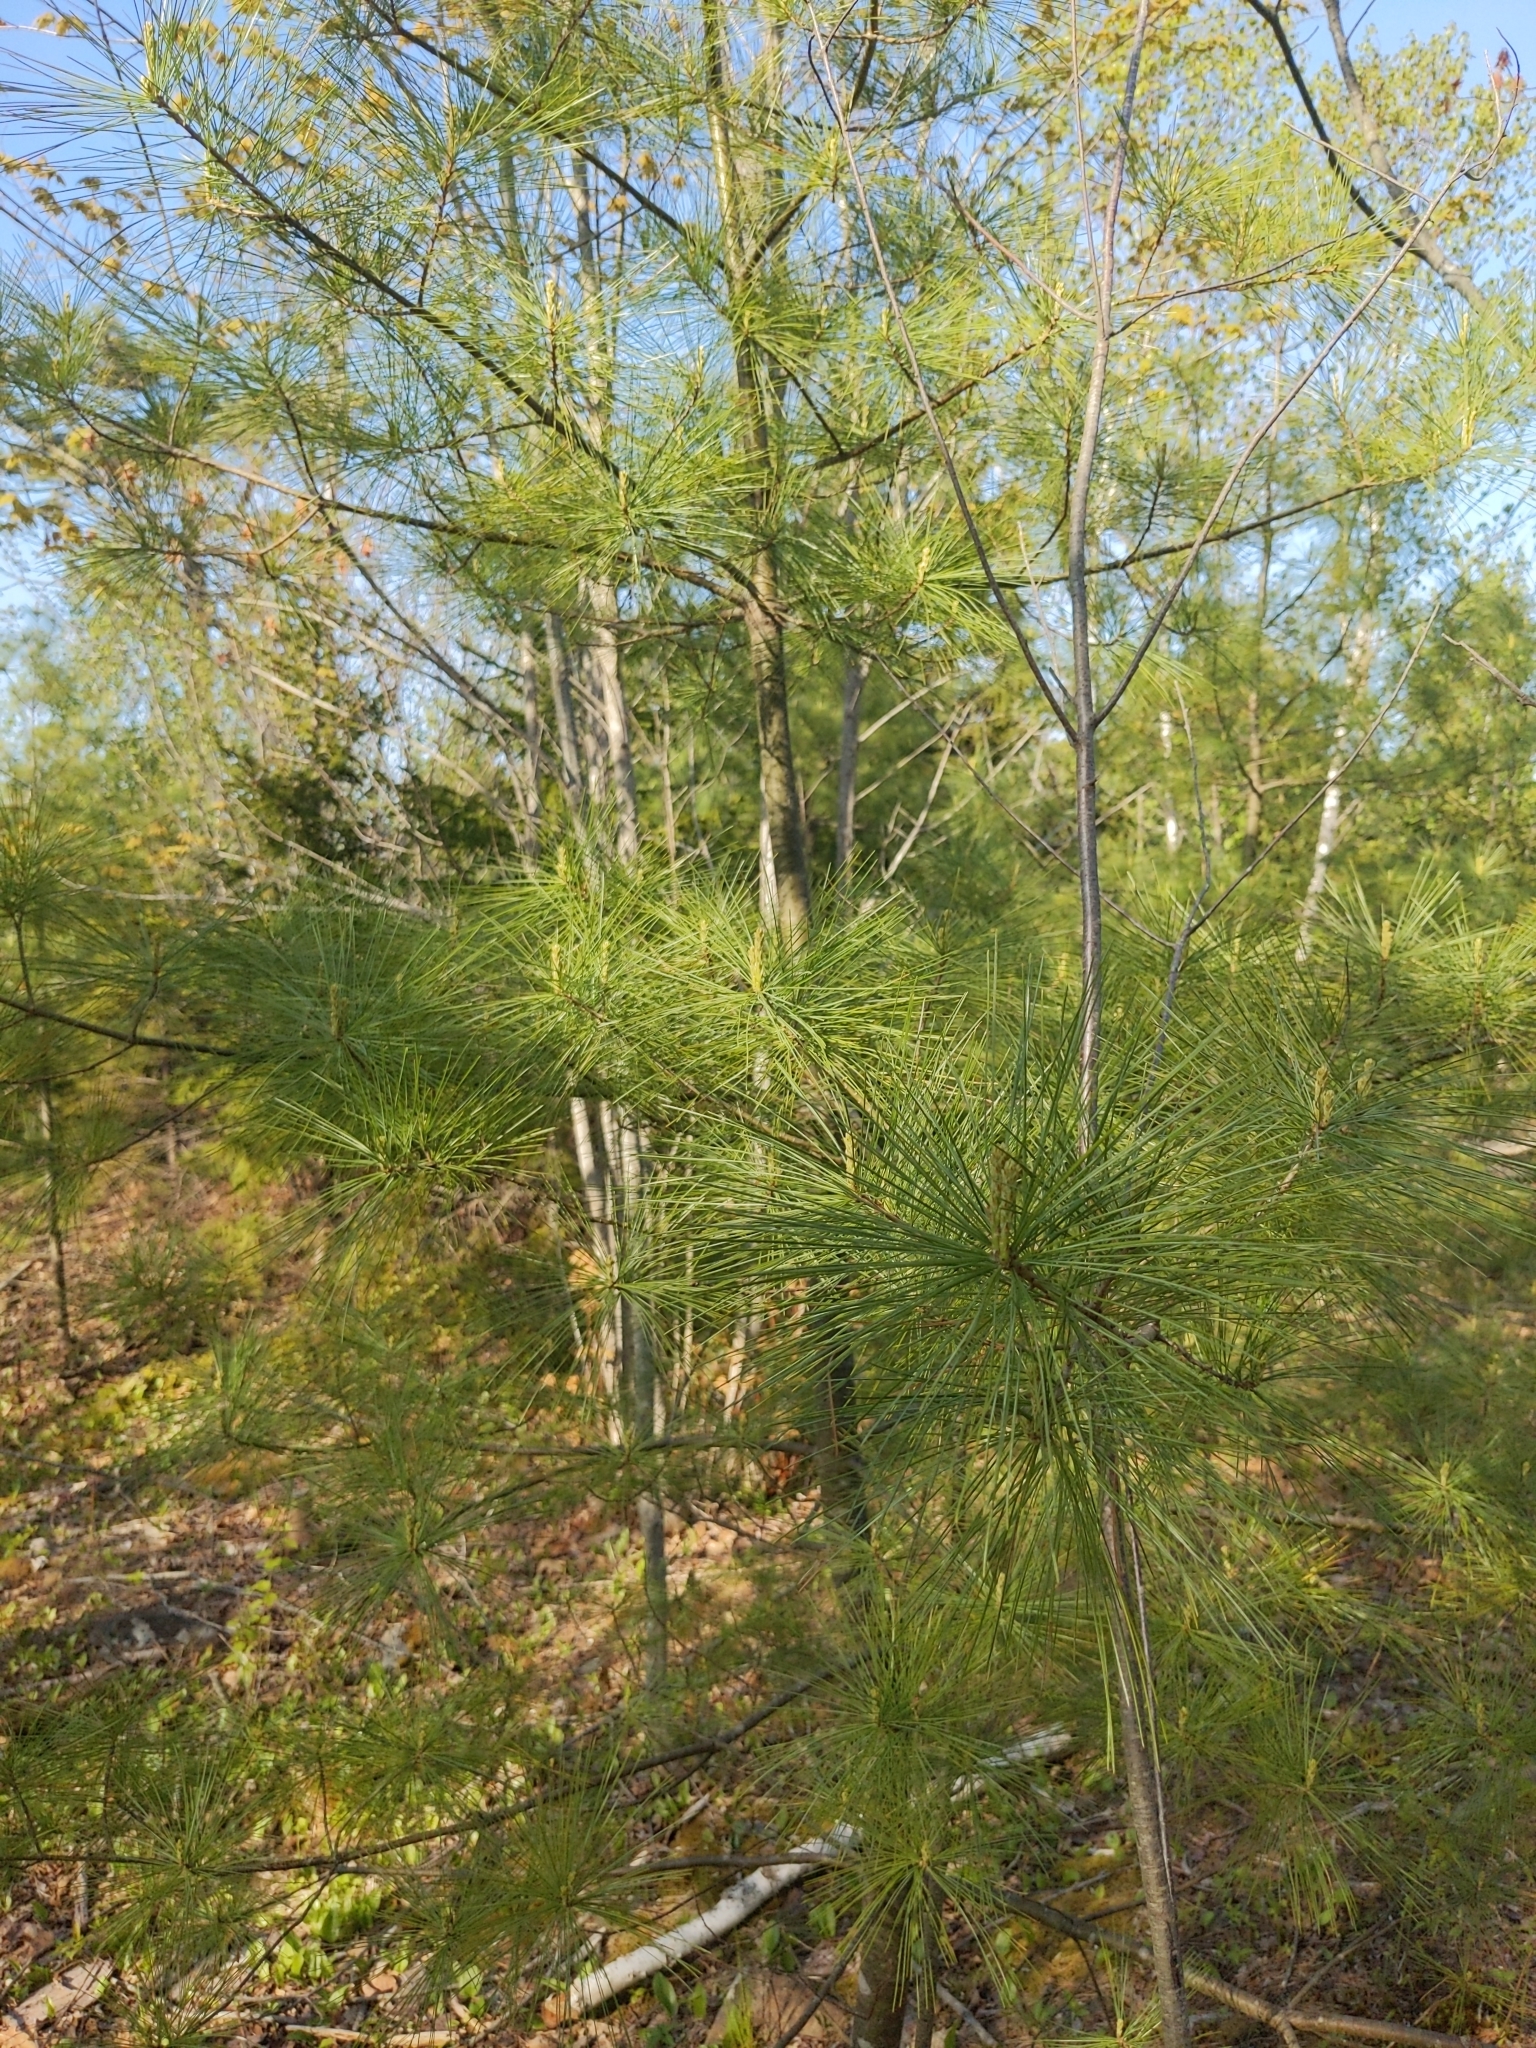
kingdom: Plantae
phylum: Tracheophyta
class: Pinopsida
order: Pinales
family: Pinaceae
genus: Pinus
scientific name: Pinus strobus
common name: Weymouth pine
